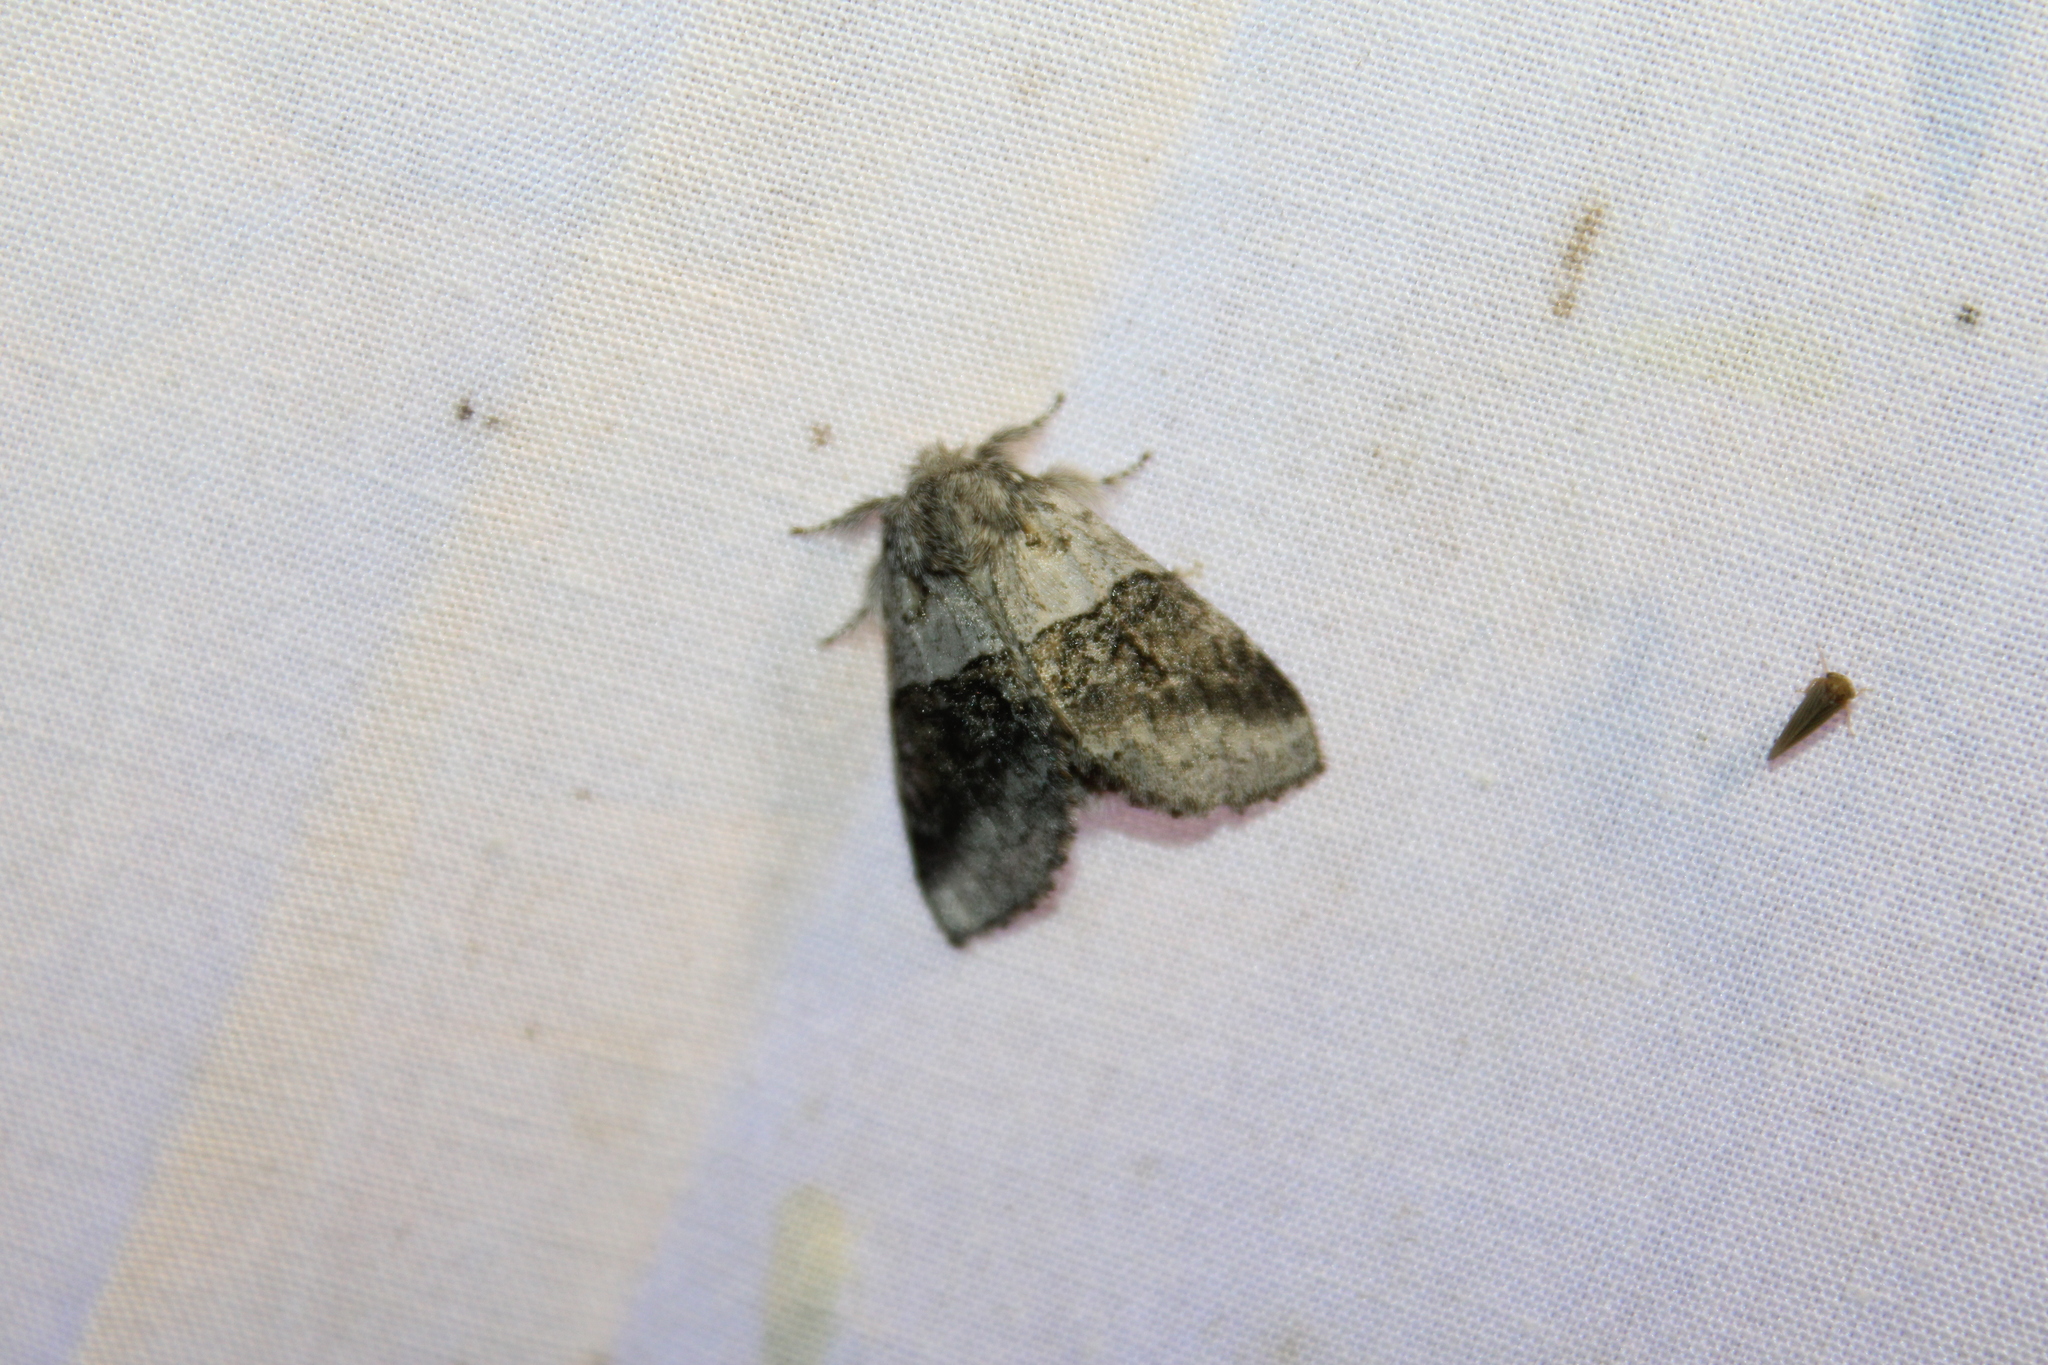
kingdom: Animalia
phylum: Arthropoda
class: Insecta
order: Lepidoptera
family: Notodontidae
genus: Gluphisia
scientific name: Gluphisia septentrionis
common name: Common gluphisia
